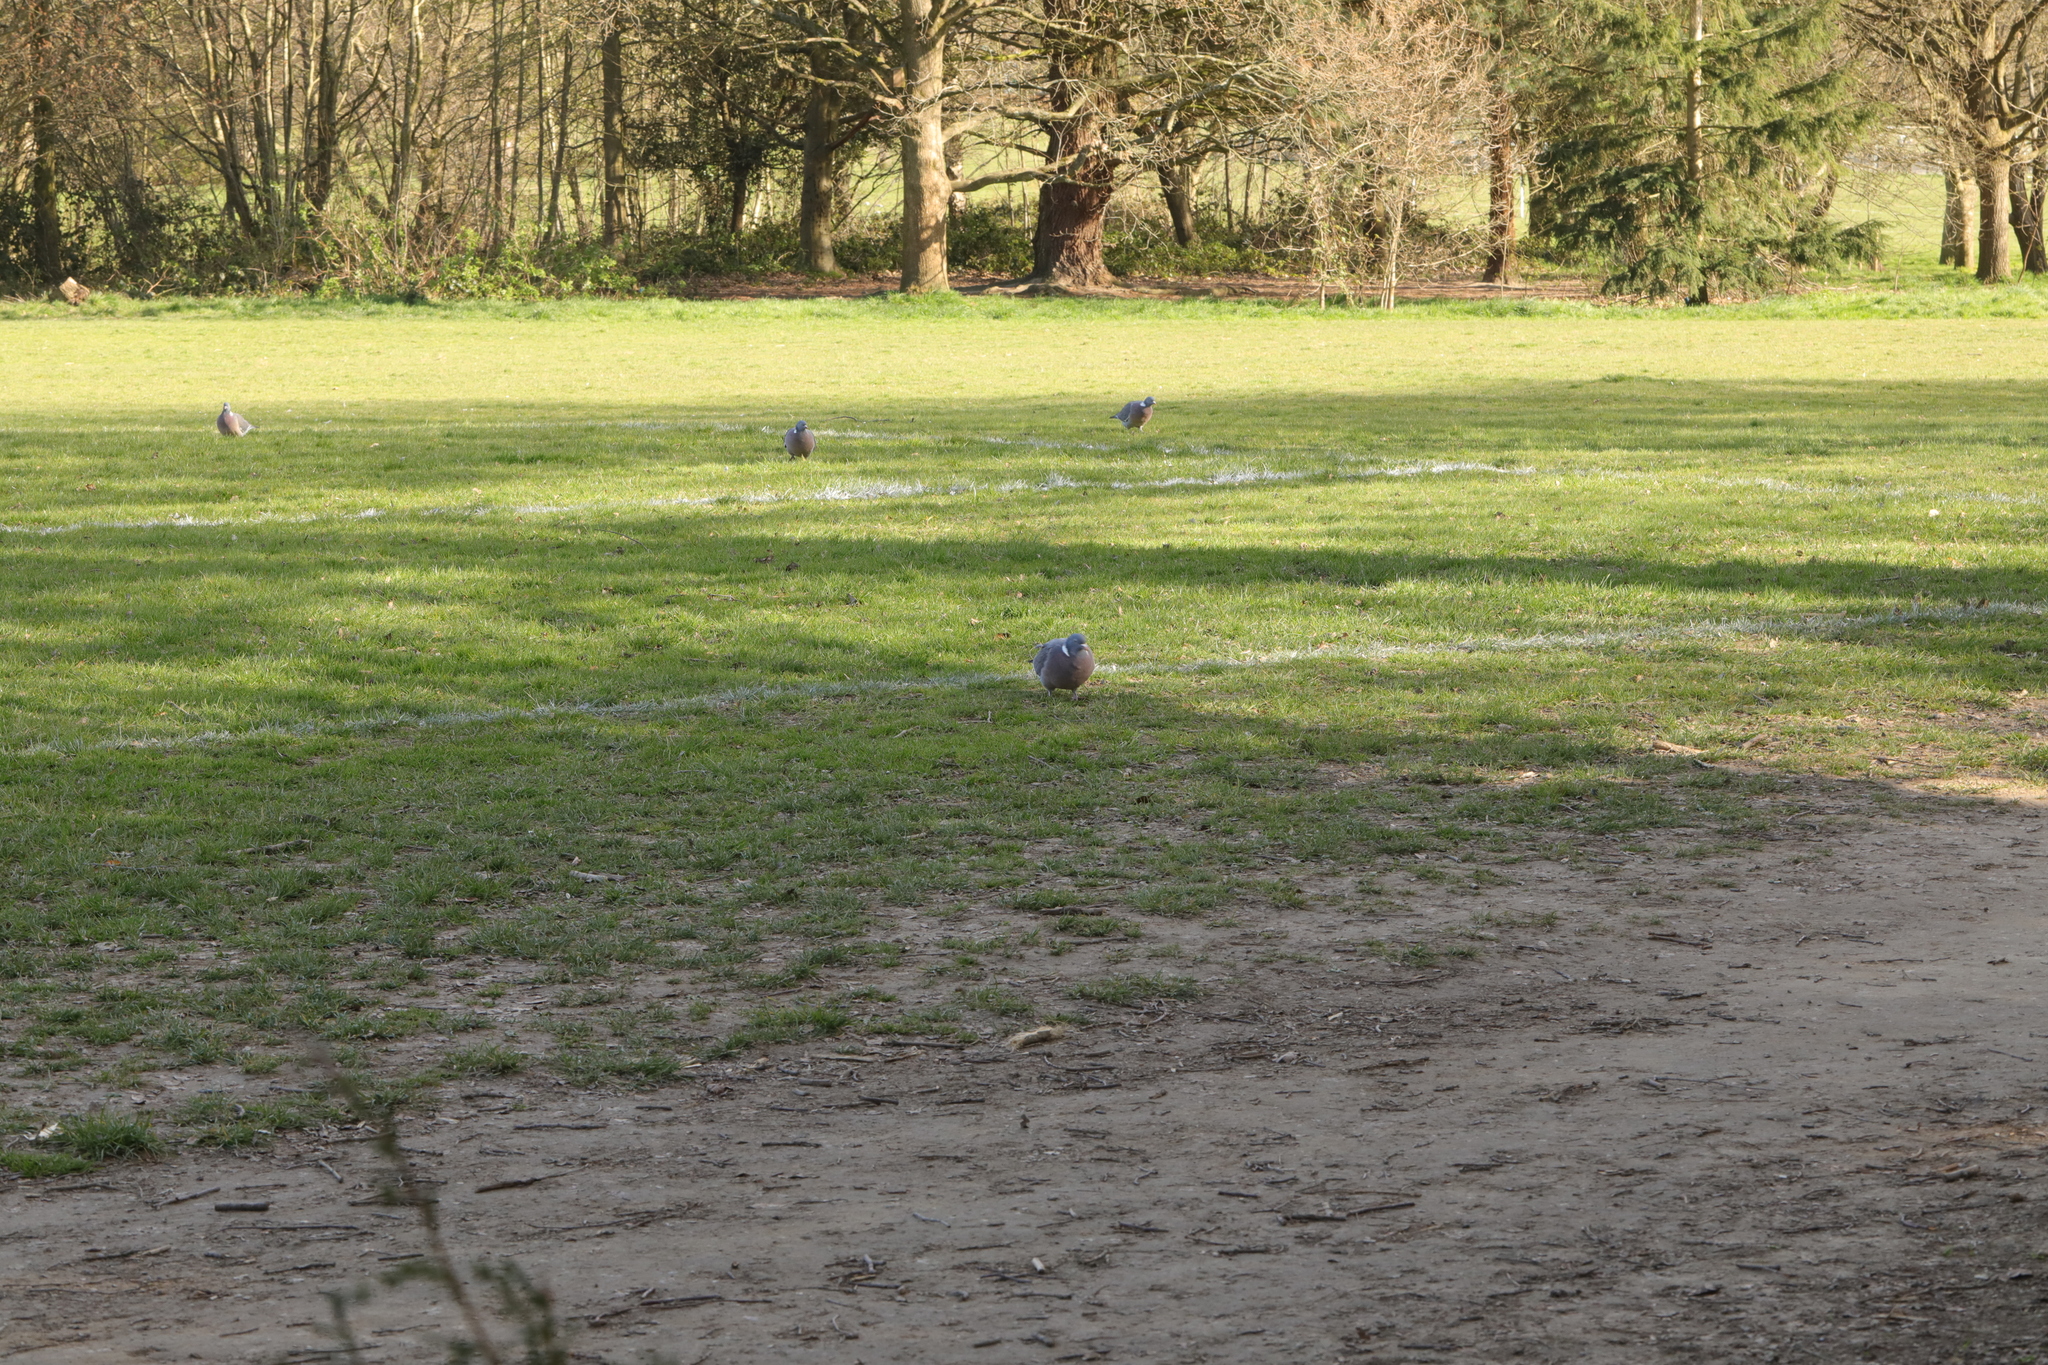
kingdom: Animalia
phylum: Chordata
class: Aves
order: Columbiformes
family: Columbidae
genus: Columba
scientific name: Columba palumbus
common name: Common wood pigeon
